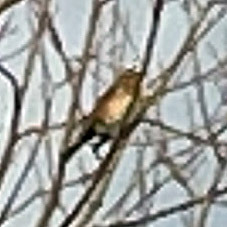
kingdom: Animalia
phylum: Chordata
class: Aves
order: Passeriformes
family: Turdidae
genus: Turdus
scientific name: Turdus philomelos
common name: Song thrush
